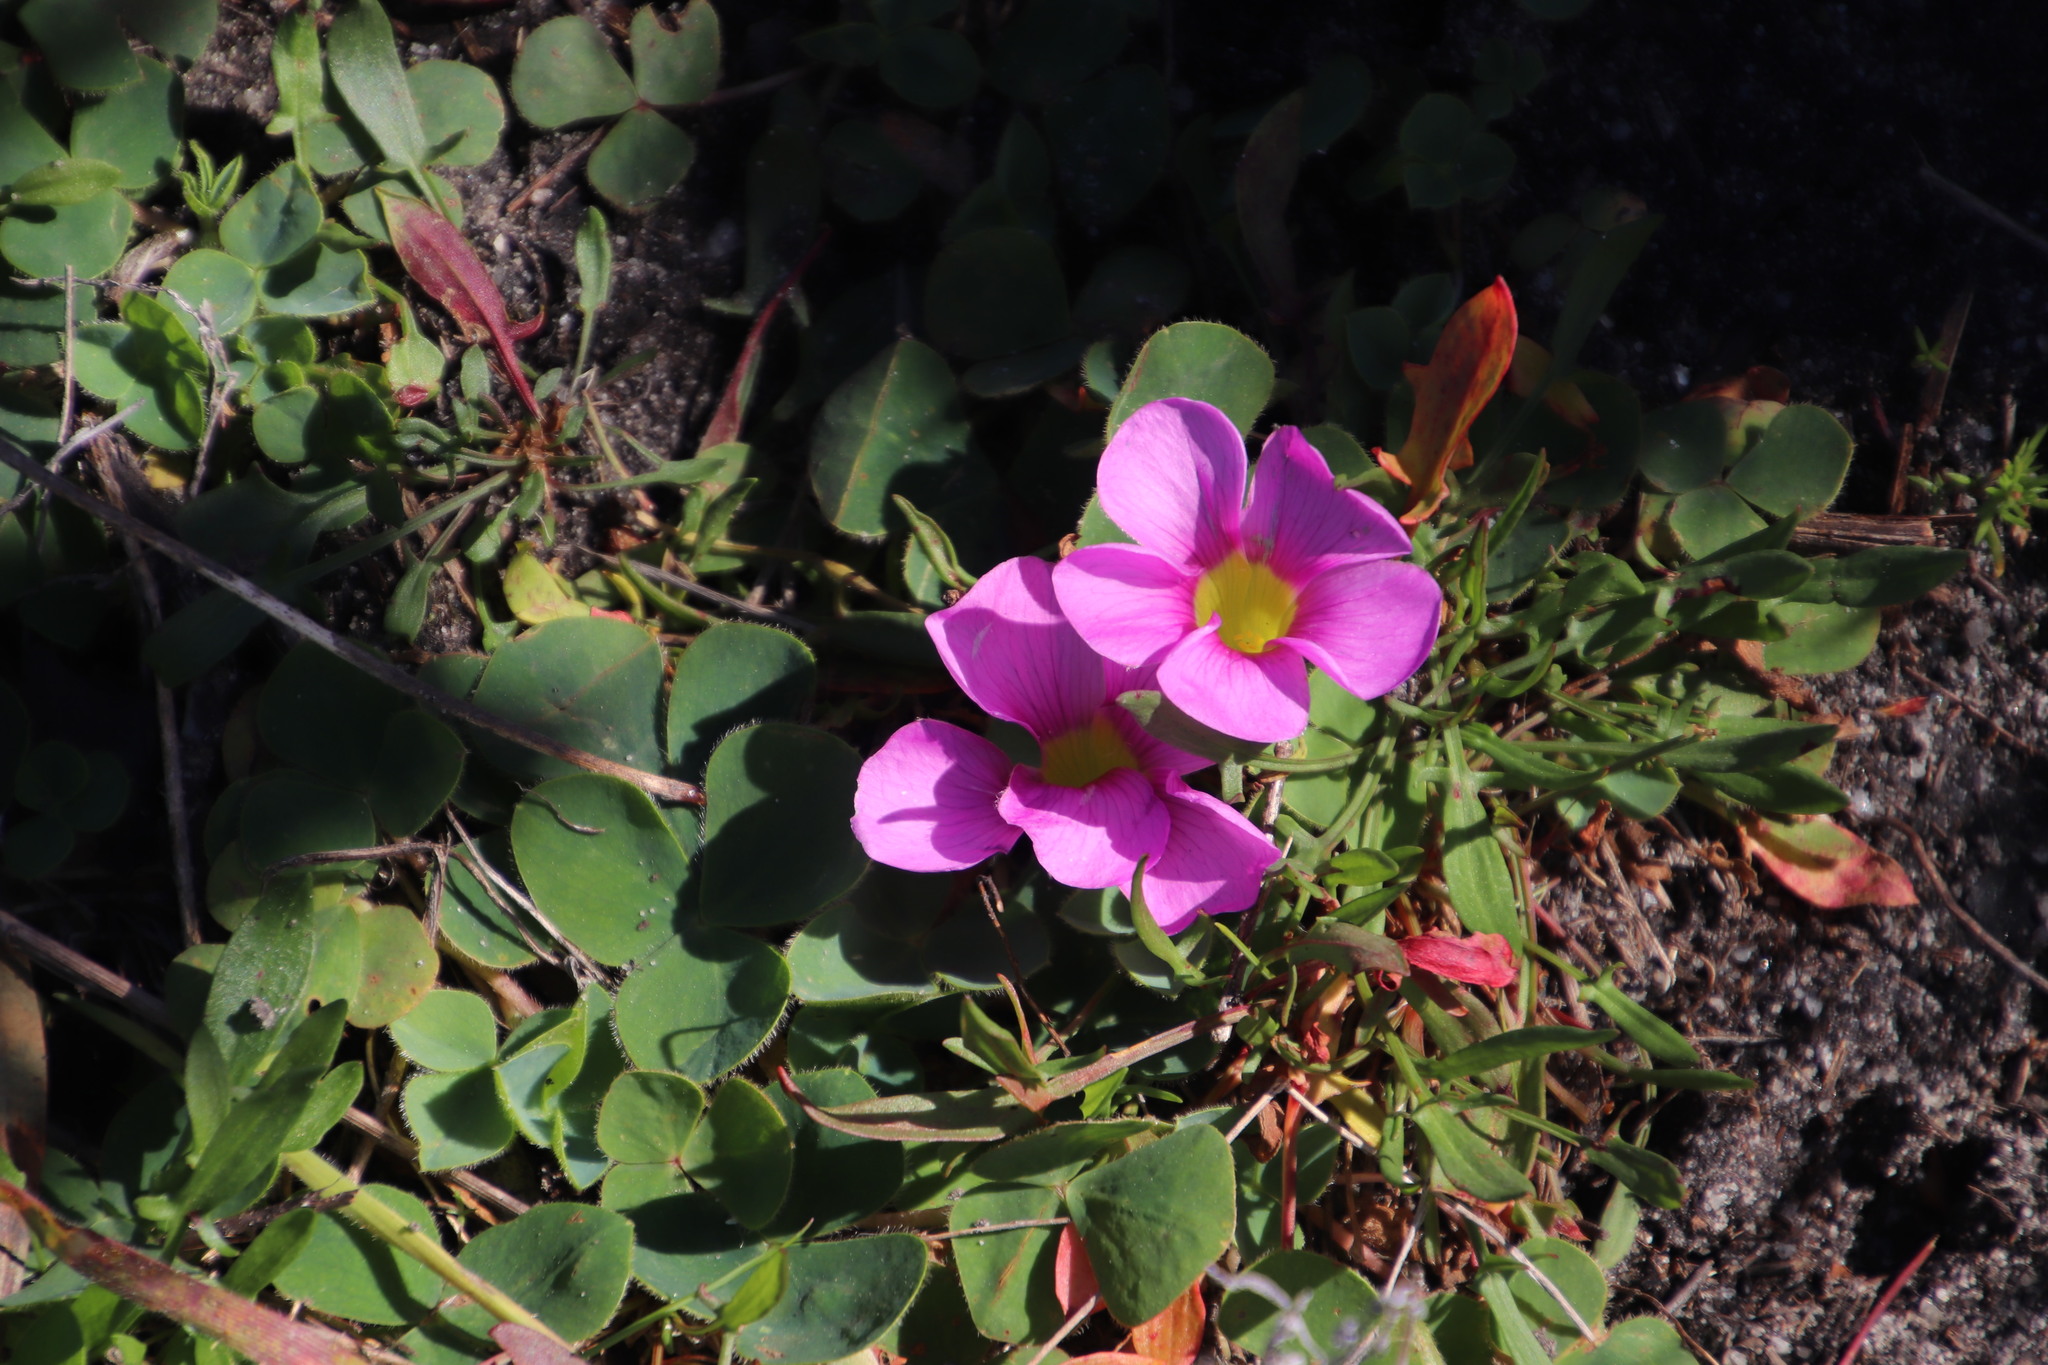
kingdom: Plantae
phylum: Tracheophyta
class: Magnoliopsida
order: Oxalidales
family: Oxalidaceae
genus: Oxalis
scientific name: Oxalis purpurea
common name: Purple woodsorrel
